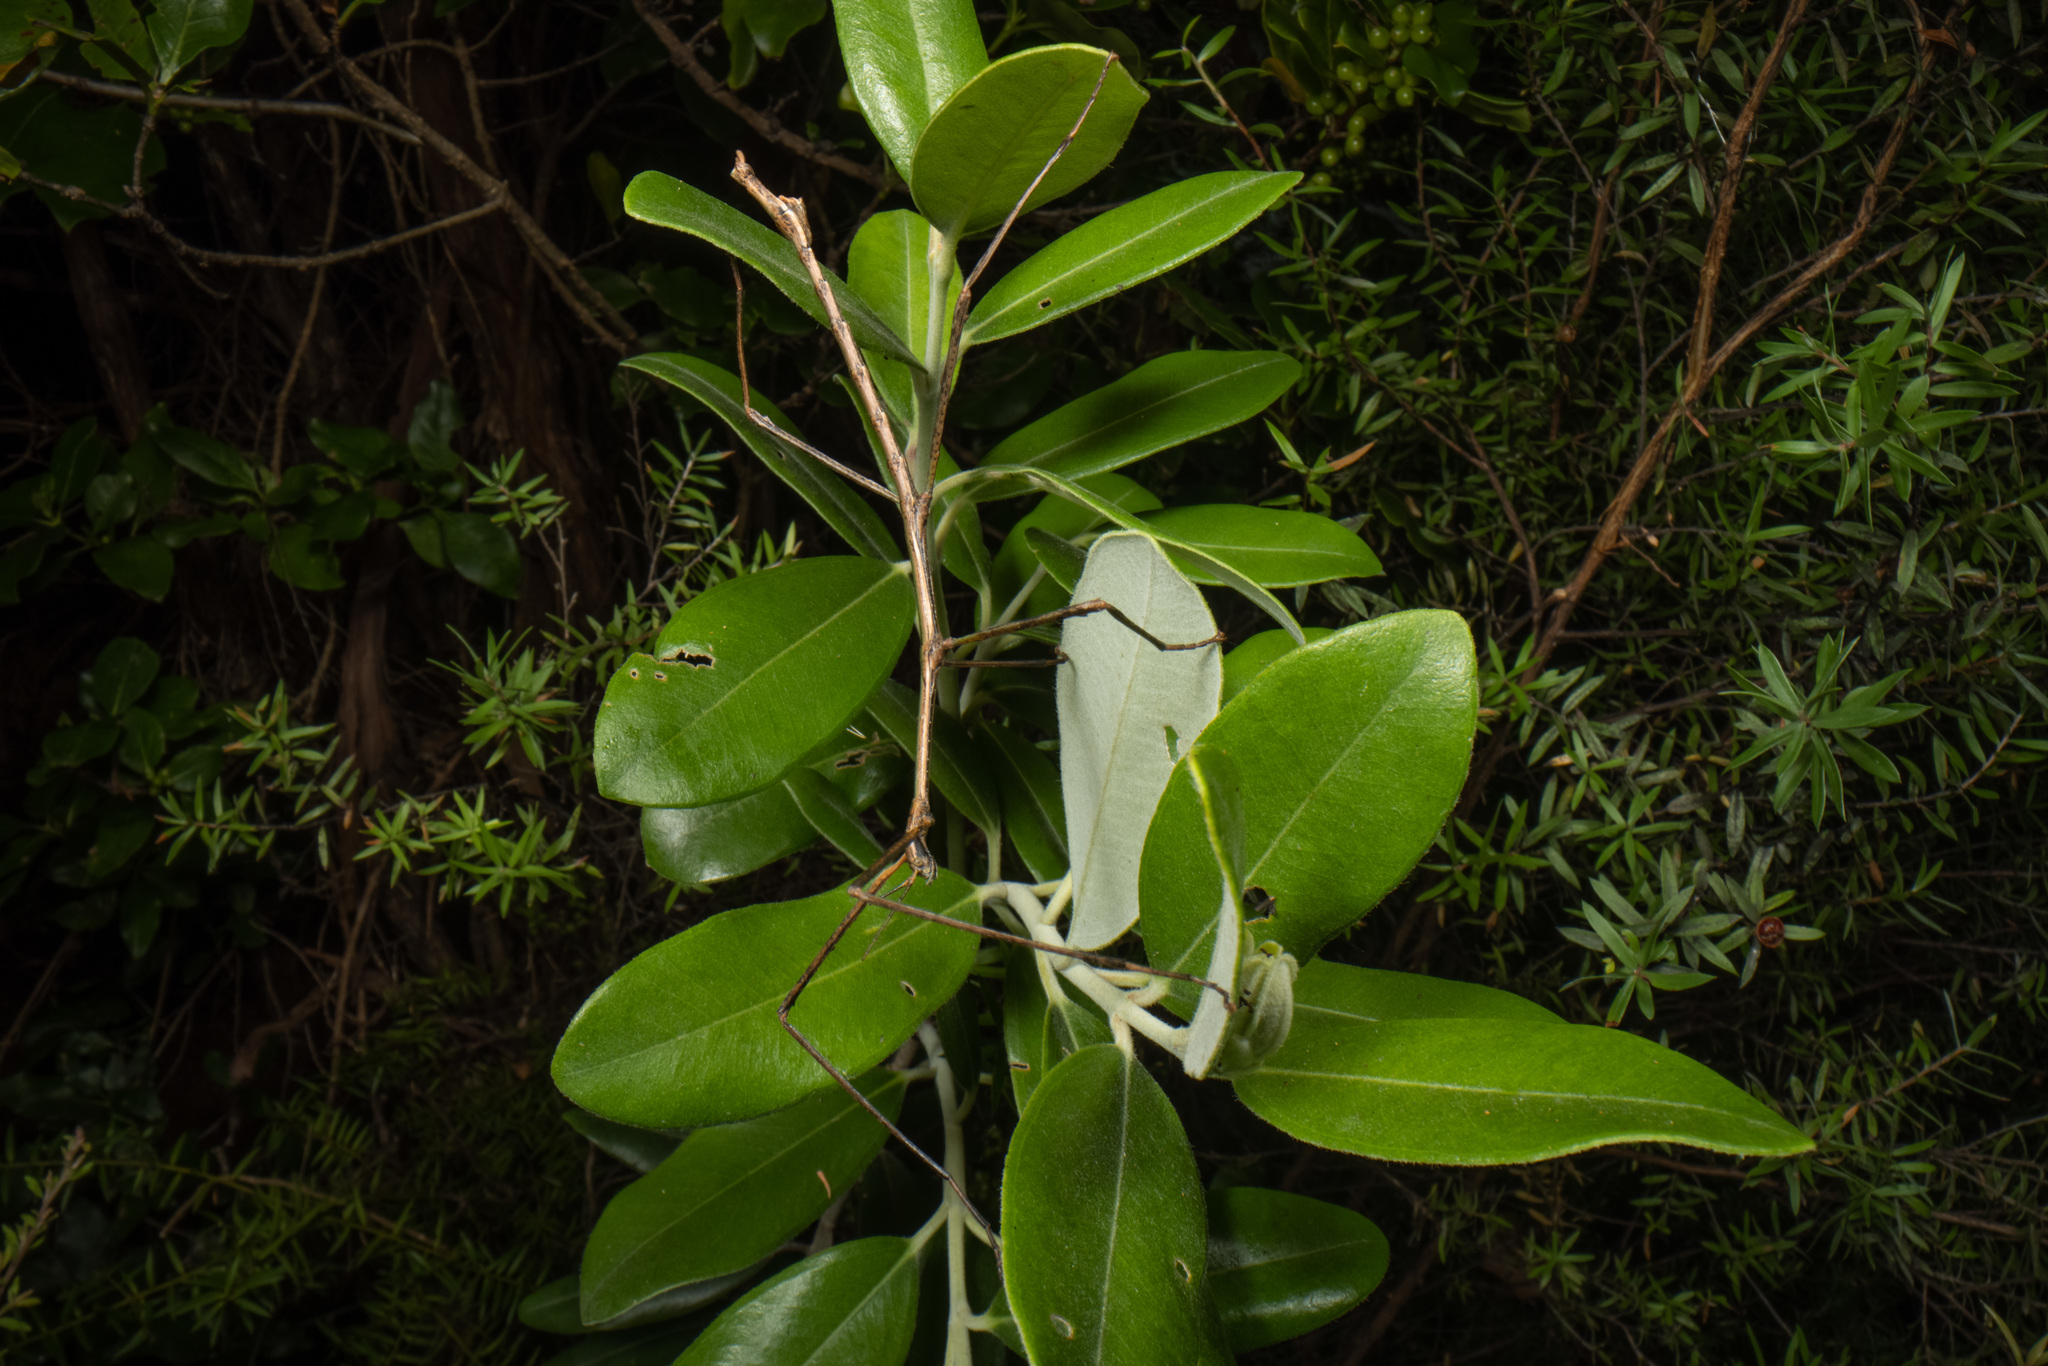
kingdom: Animalia
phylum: Arthropoda
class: Insecta
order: Phasmida
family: Phasmatidae
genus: Clitarchus
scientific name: Clitarchus hookeri
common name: Smooth stick insect
